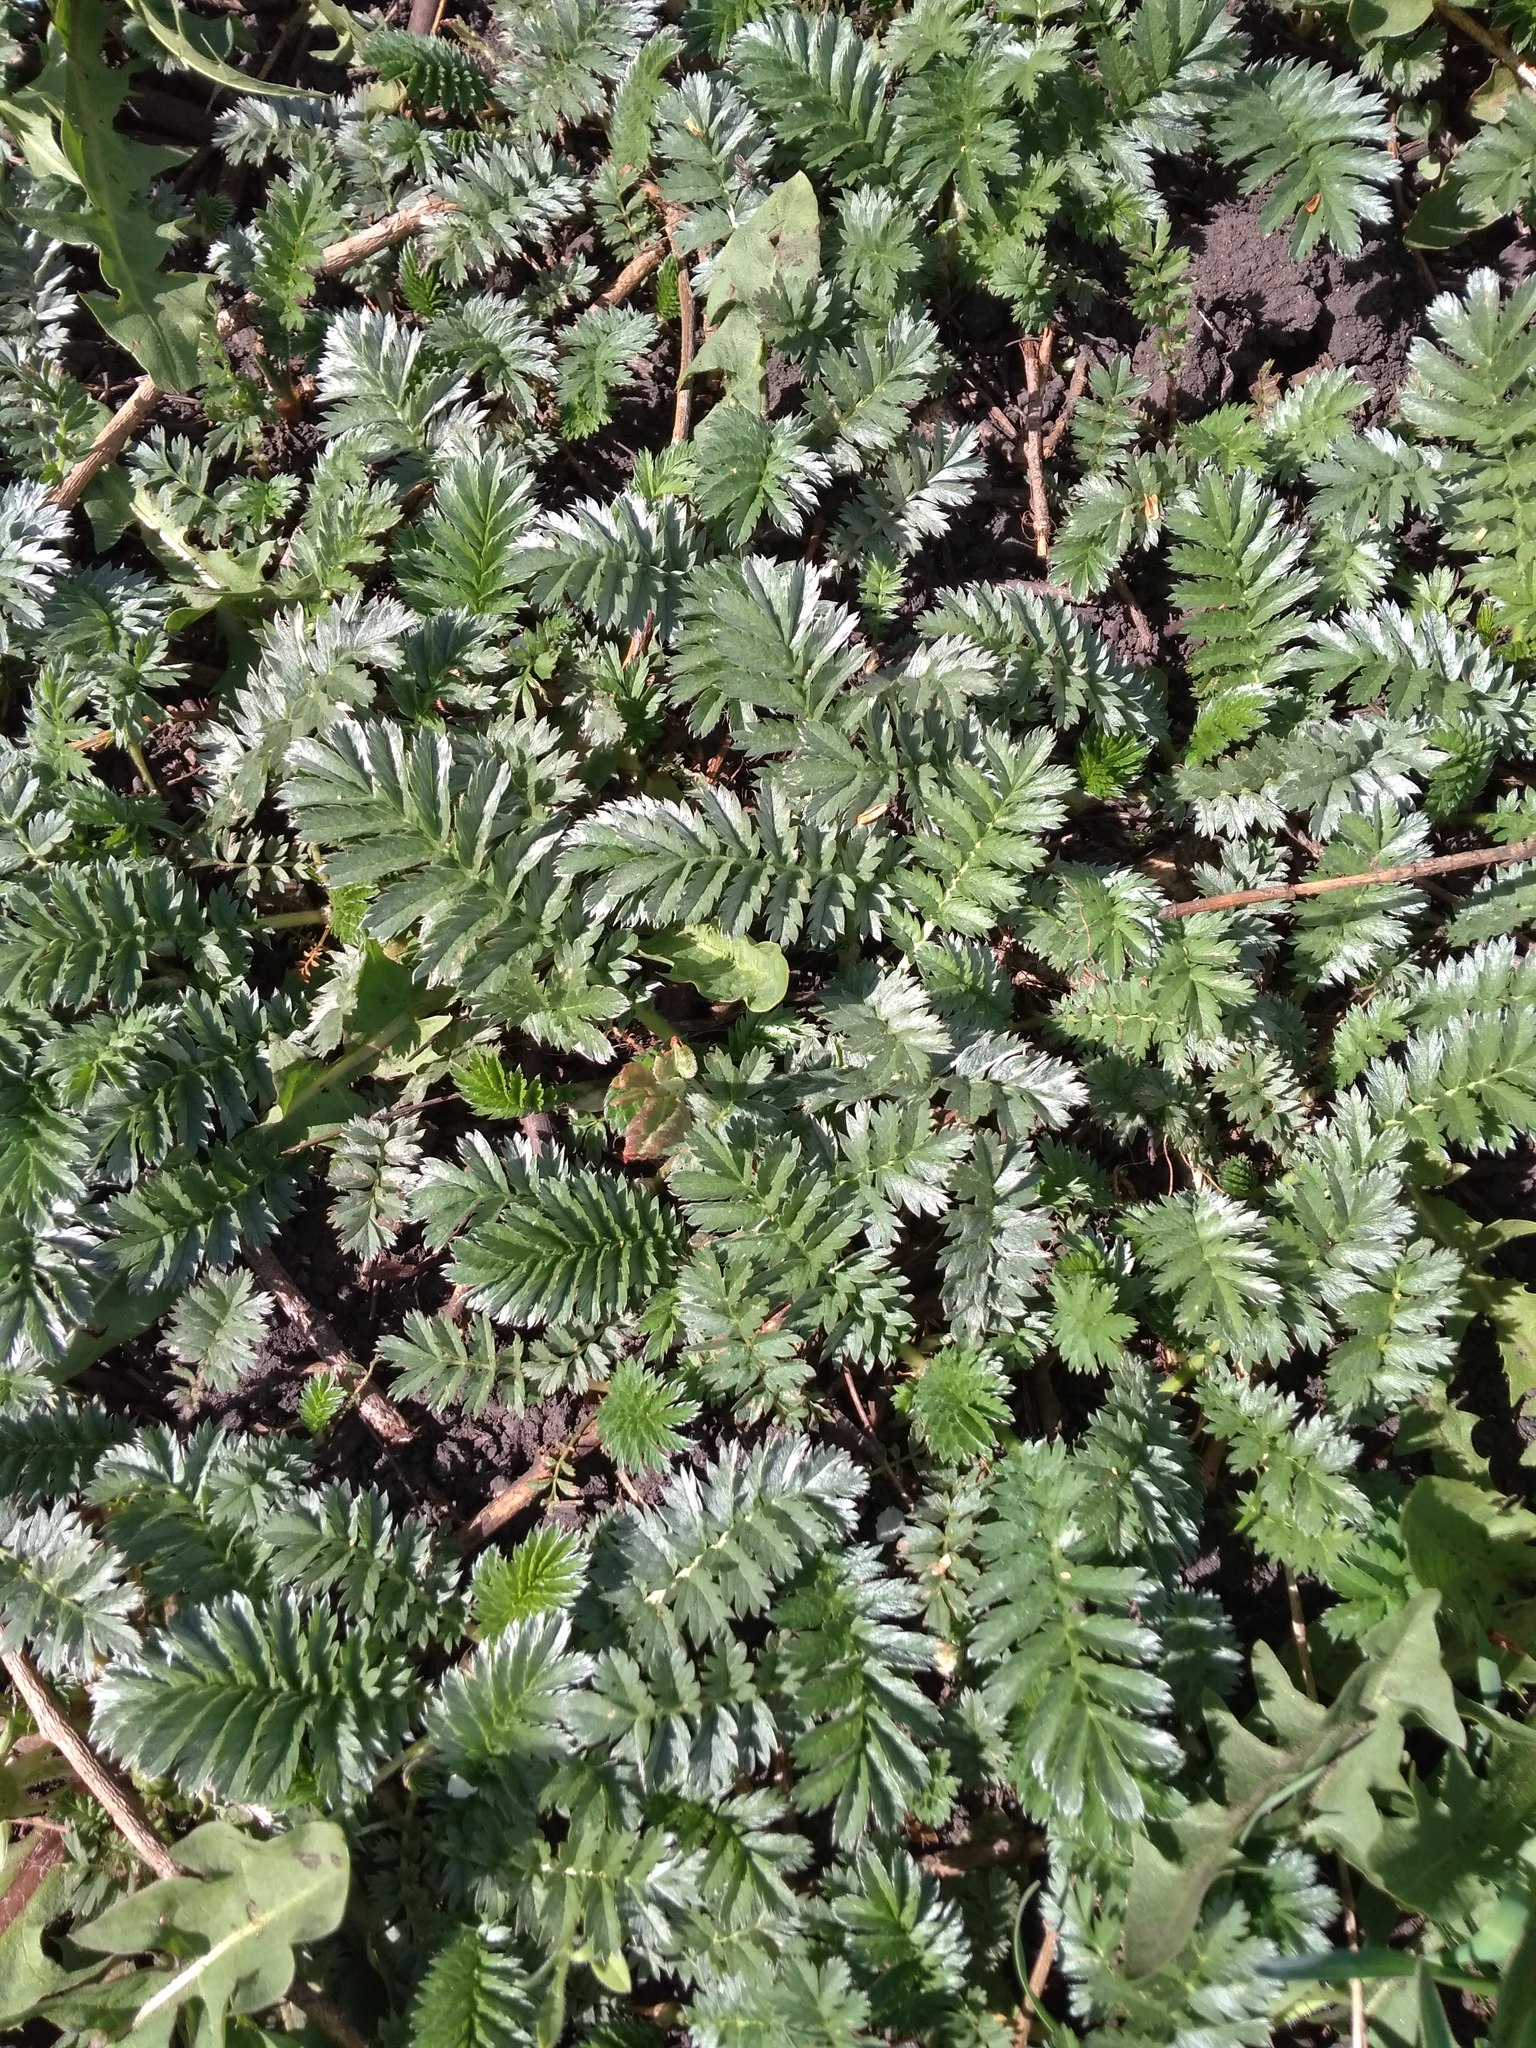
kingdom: Plantae
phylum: Tracheophyta
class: Magnoliopsida
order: Rosales
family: Rosaceae
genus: Argentina
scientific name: Argentina anserina
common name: Common silverweed
